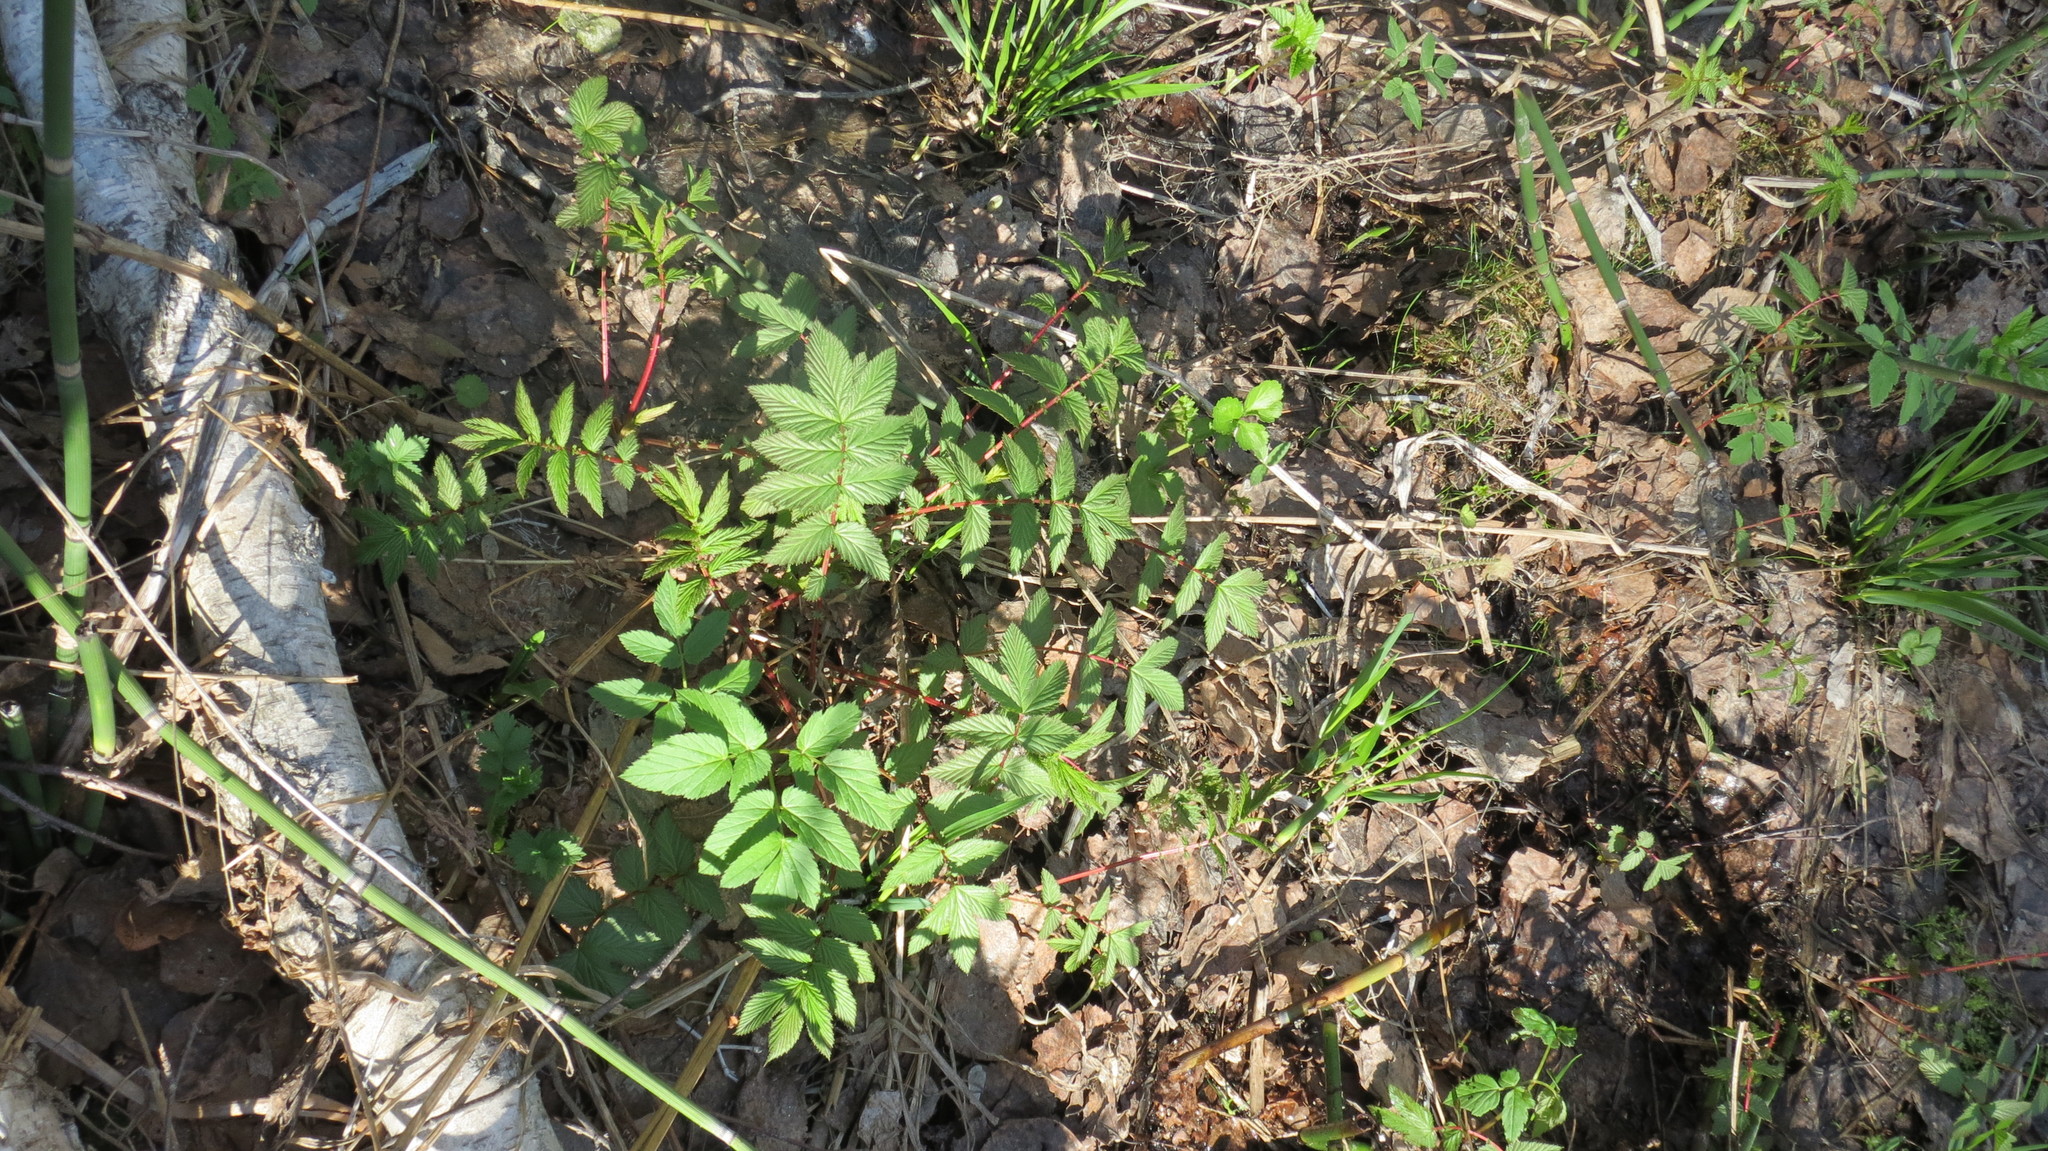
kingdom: Plantae
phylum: Tracheophyta
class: Magnoliopsida
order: Rosales
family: Rosaceae
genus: Filipendula
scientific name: Filipendula ulmaria
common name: Meadowsweet
